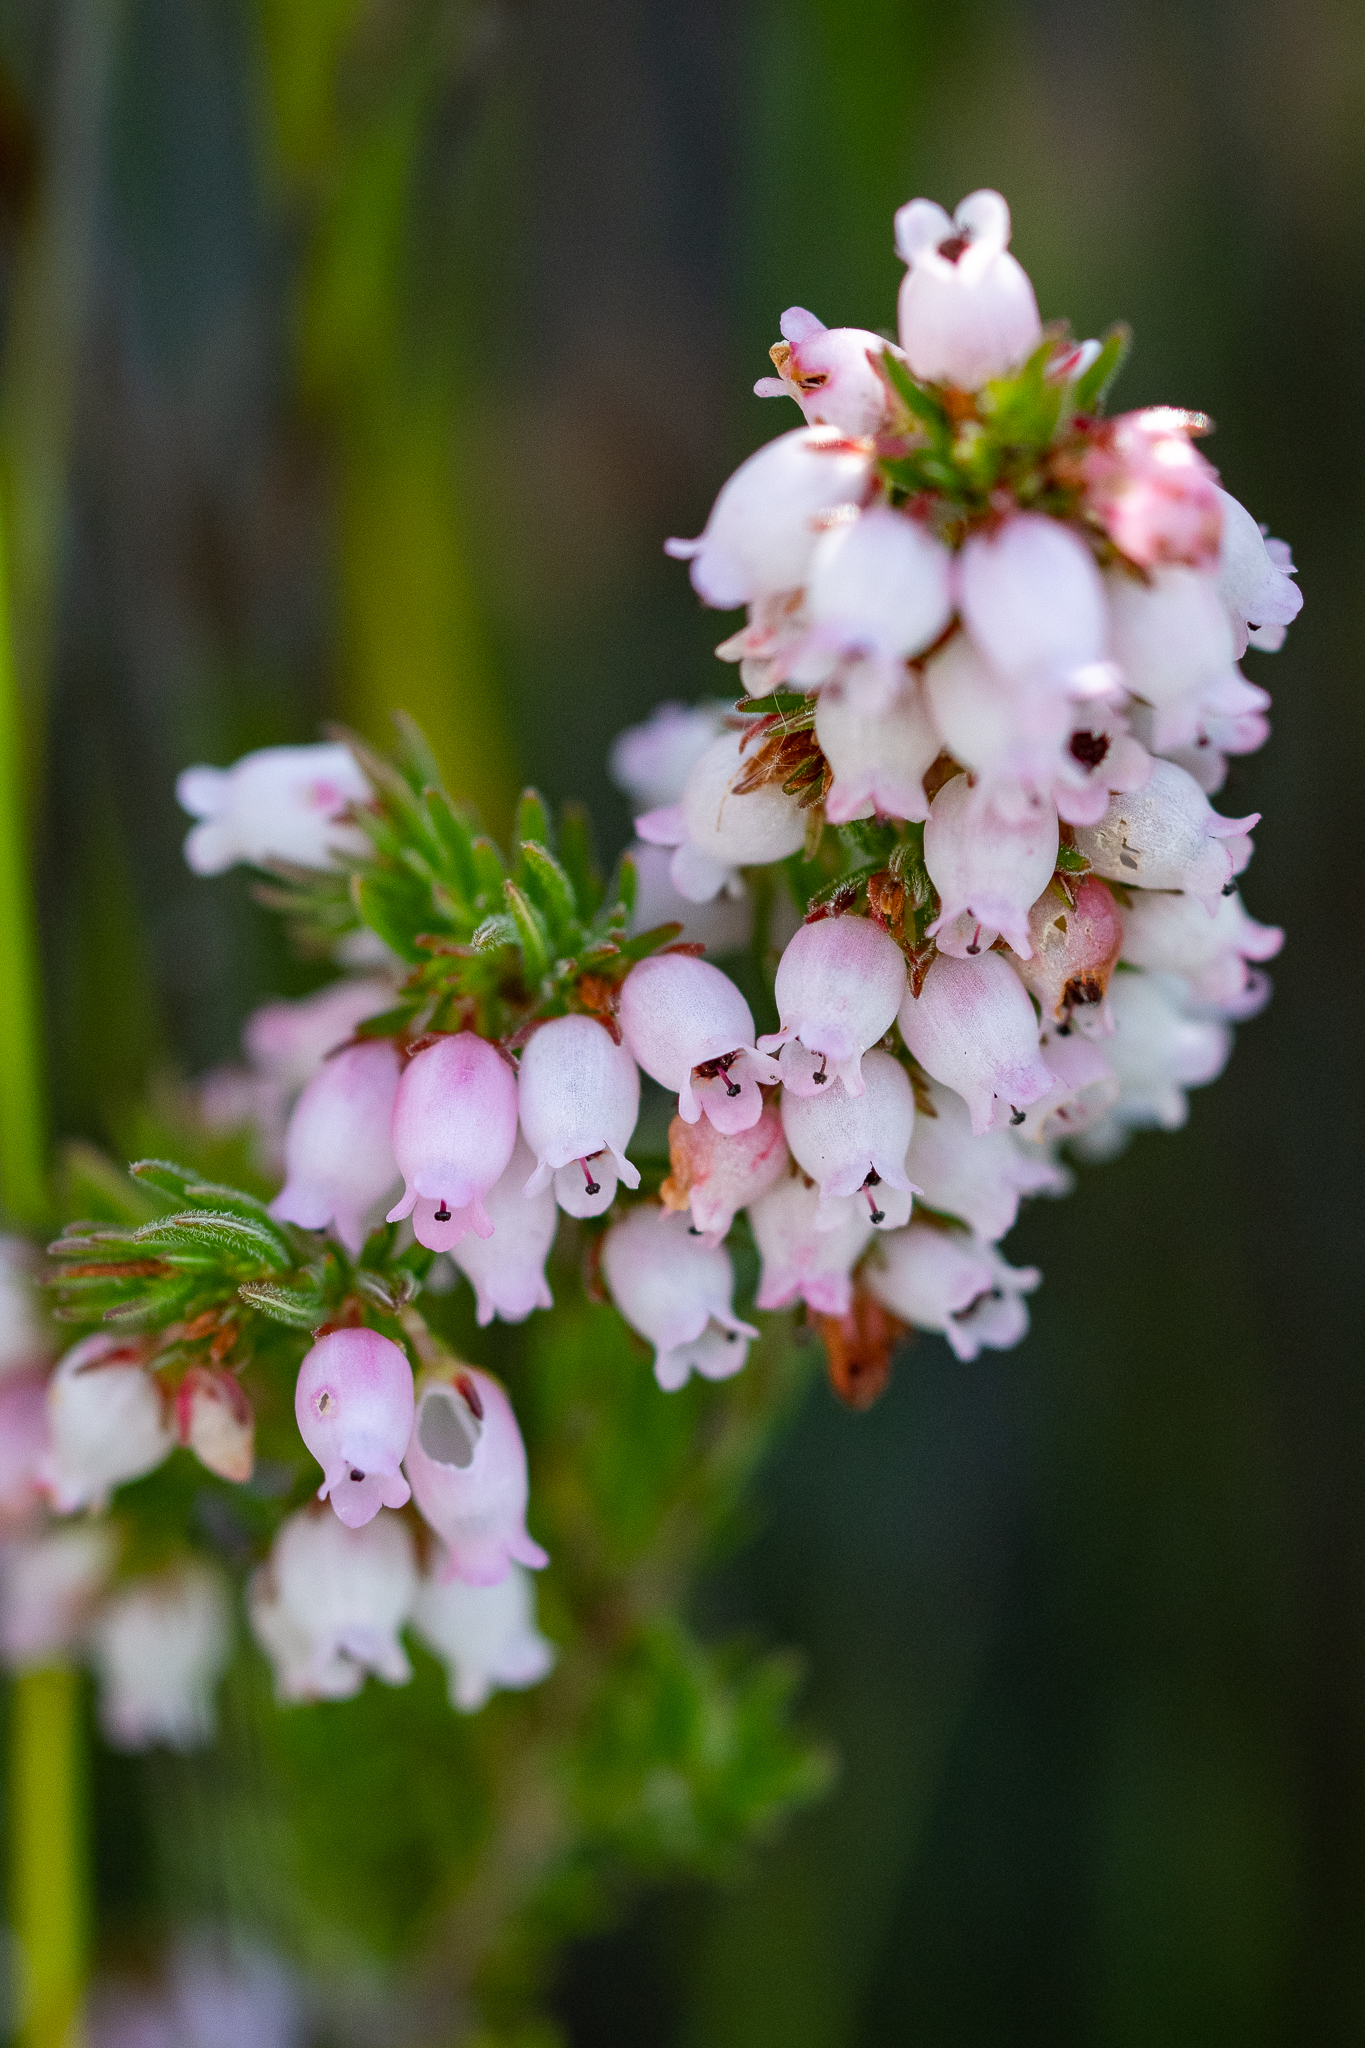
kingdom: Plantae
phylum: Tracheophyta
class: Magnoliopsida
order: Ericales
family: Ericaceae
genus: Erica
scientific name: Erica tenella
